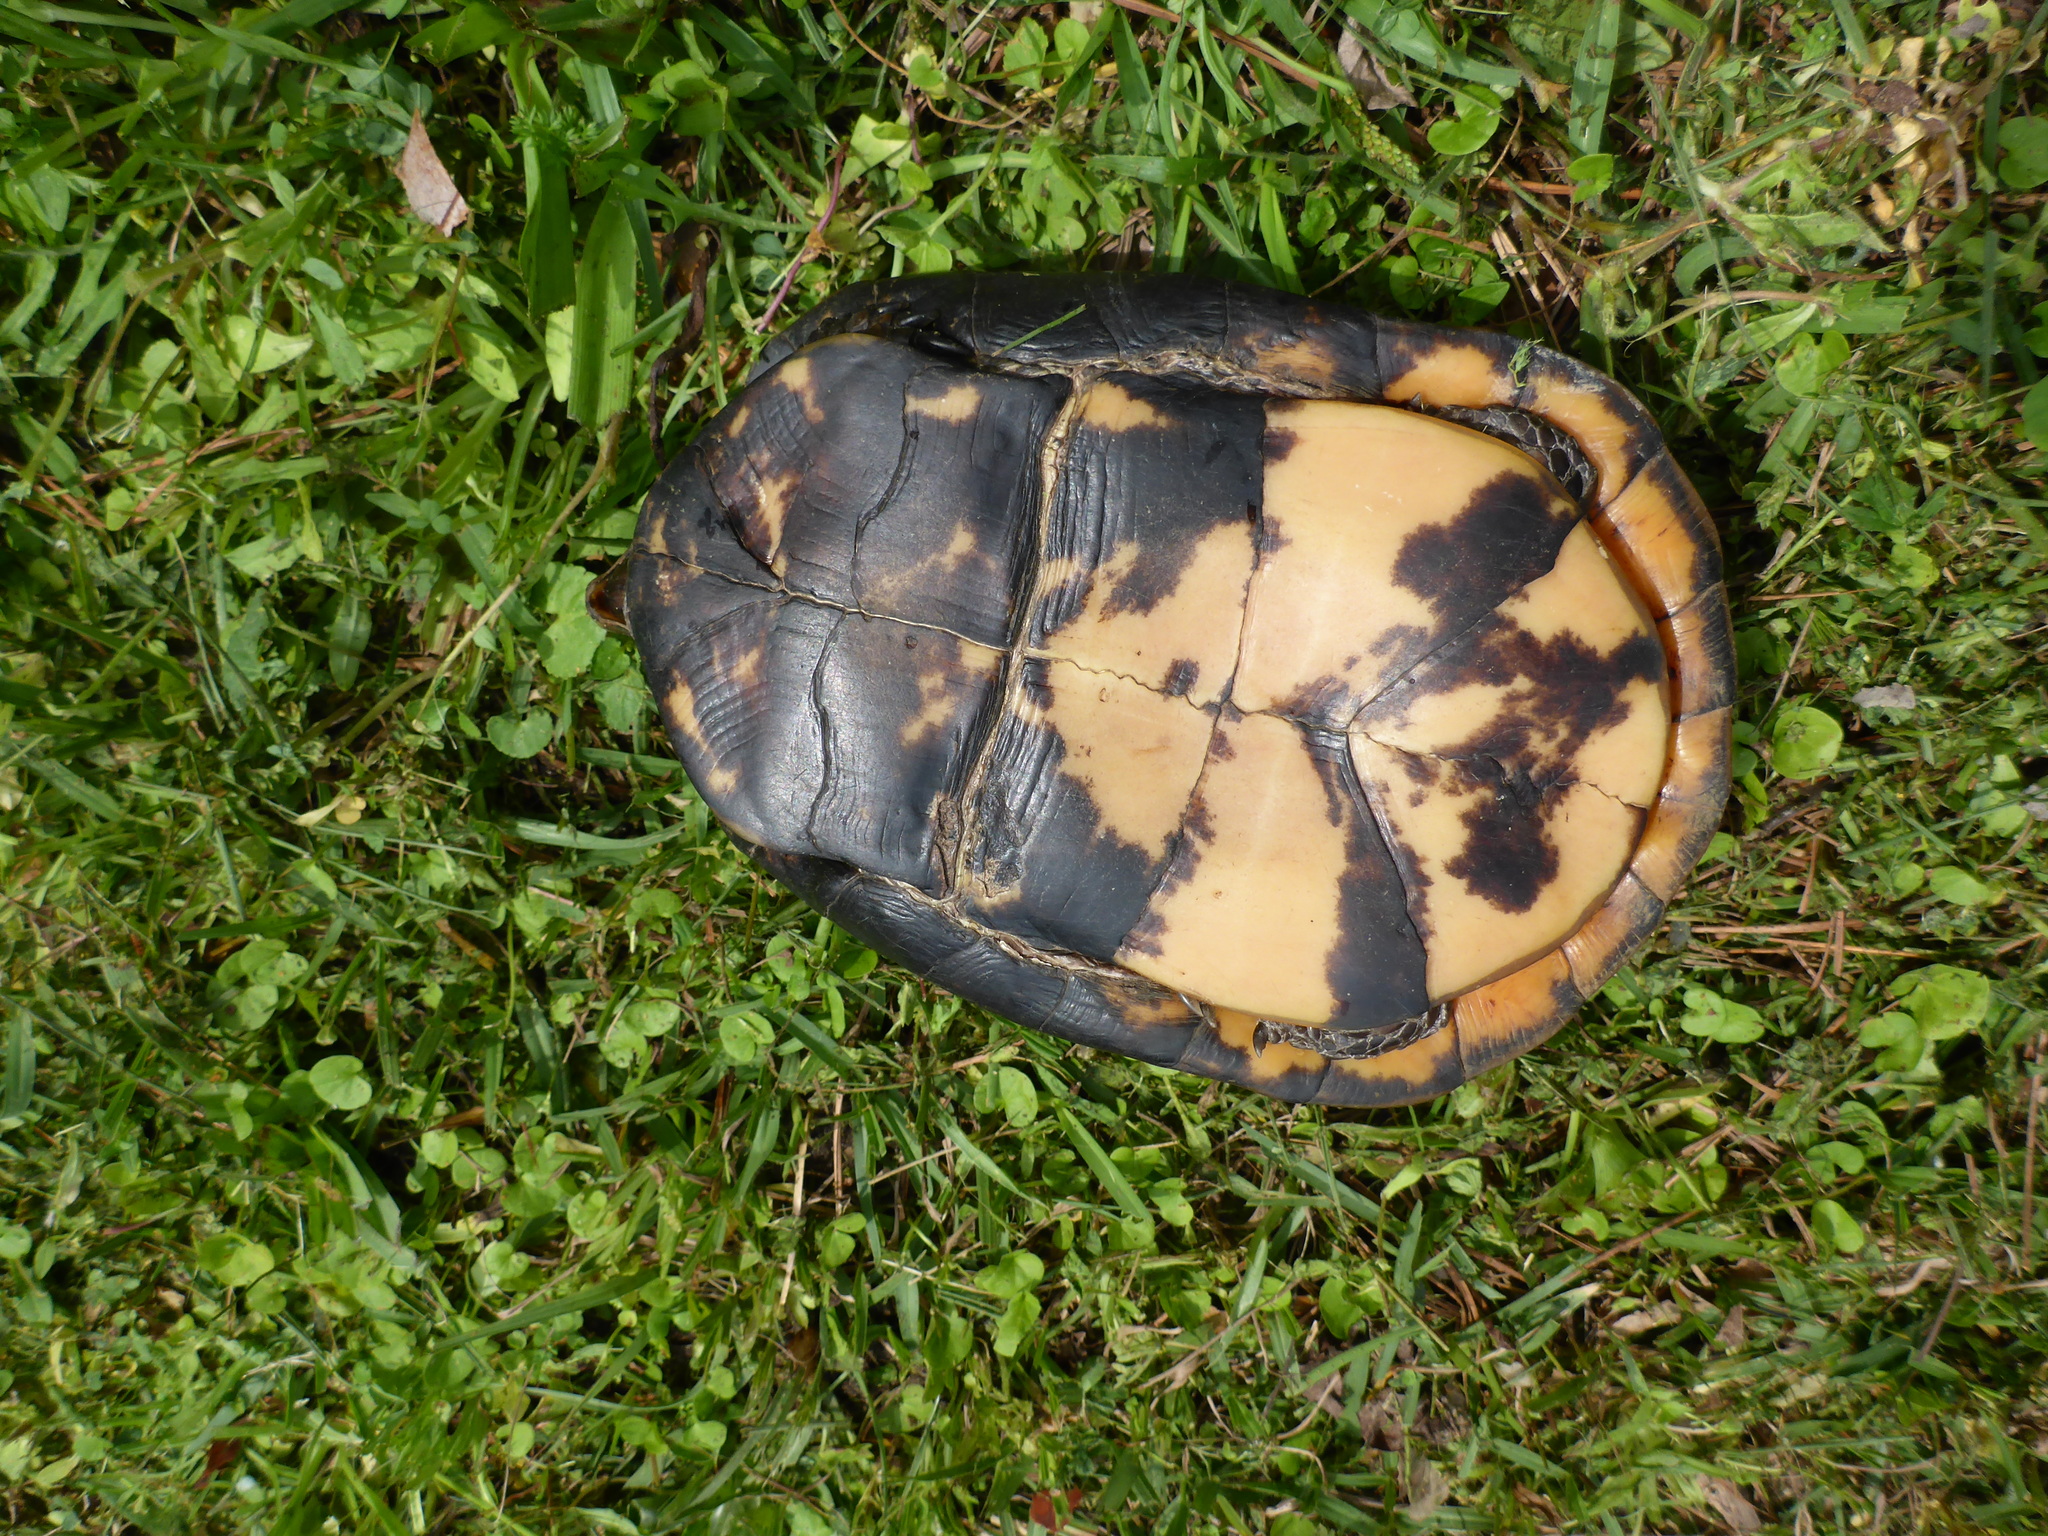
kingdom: Animalia
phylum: Chordata
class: Testudines
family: Emydidae
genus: Terrapene
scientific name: Terrapene carolina
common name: Common box turtle
